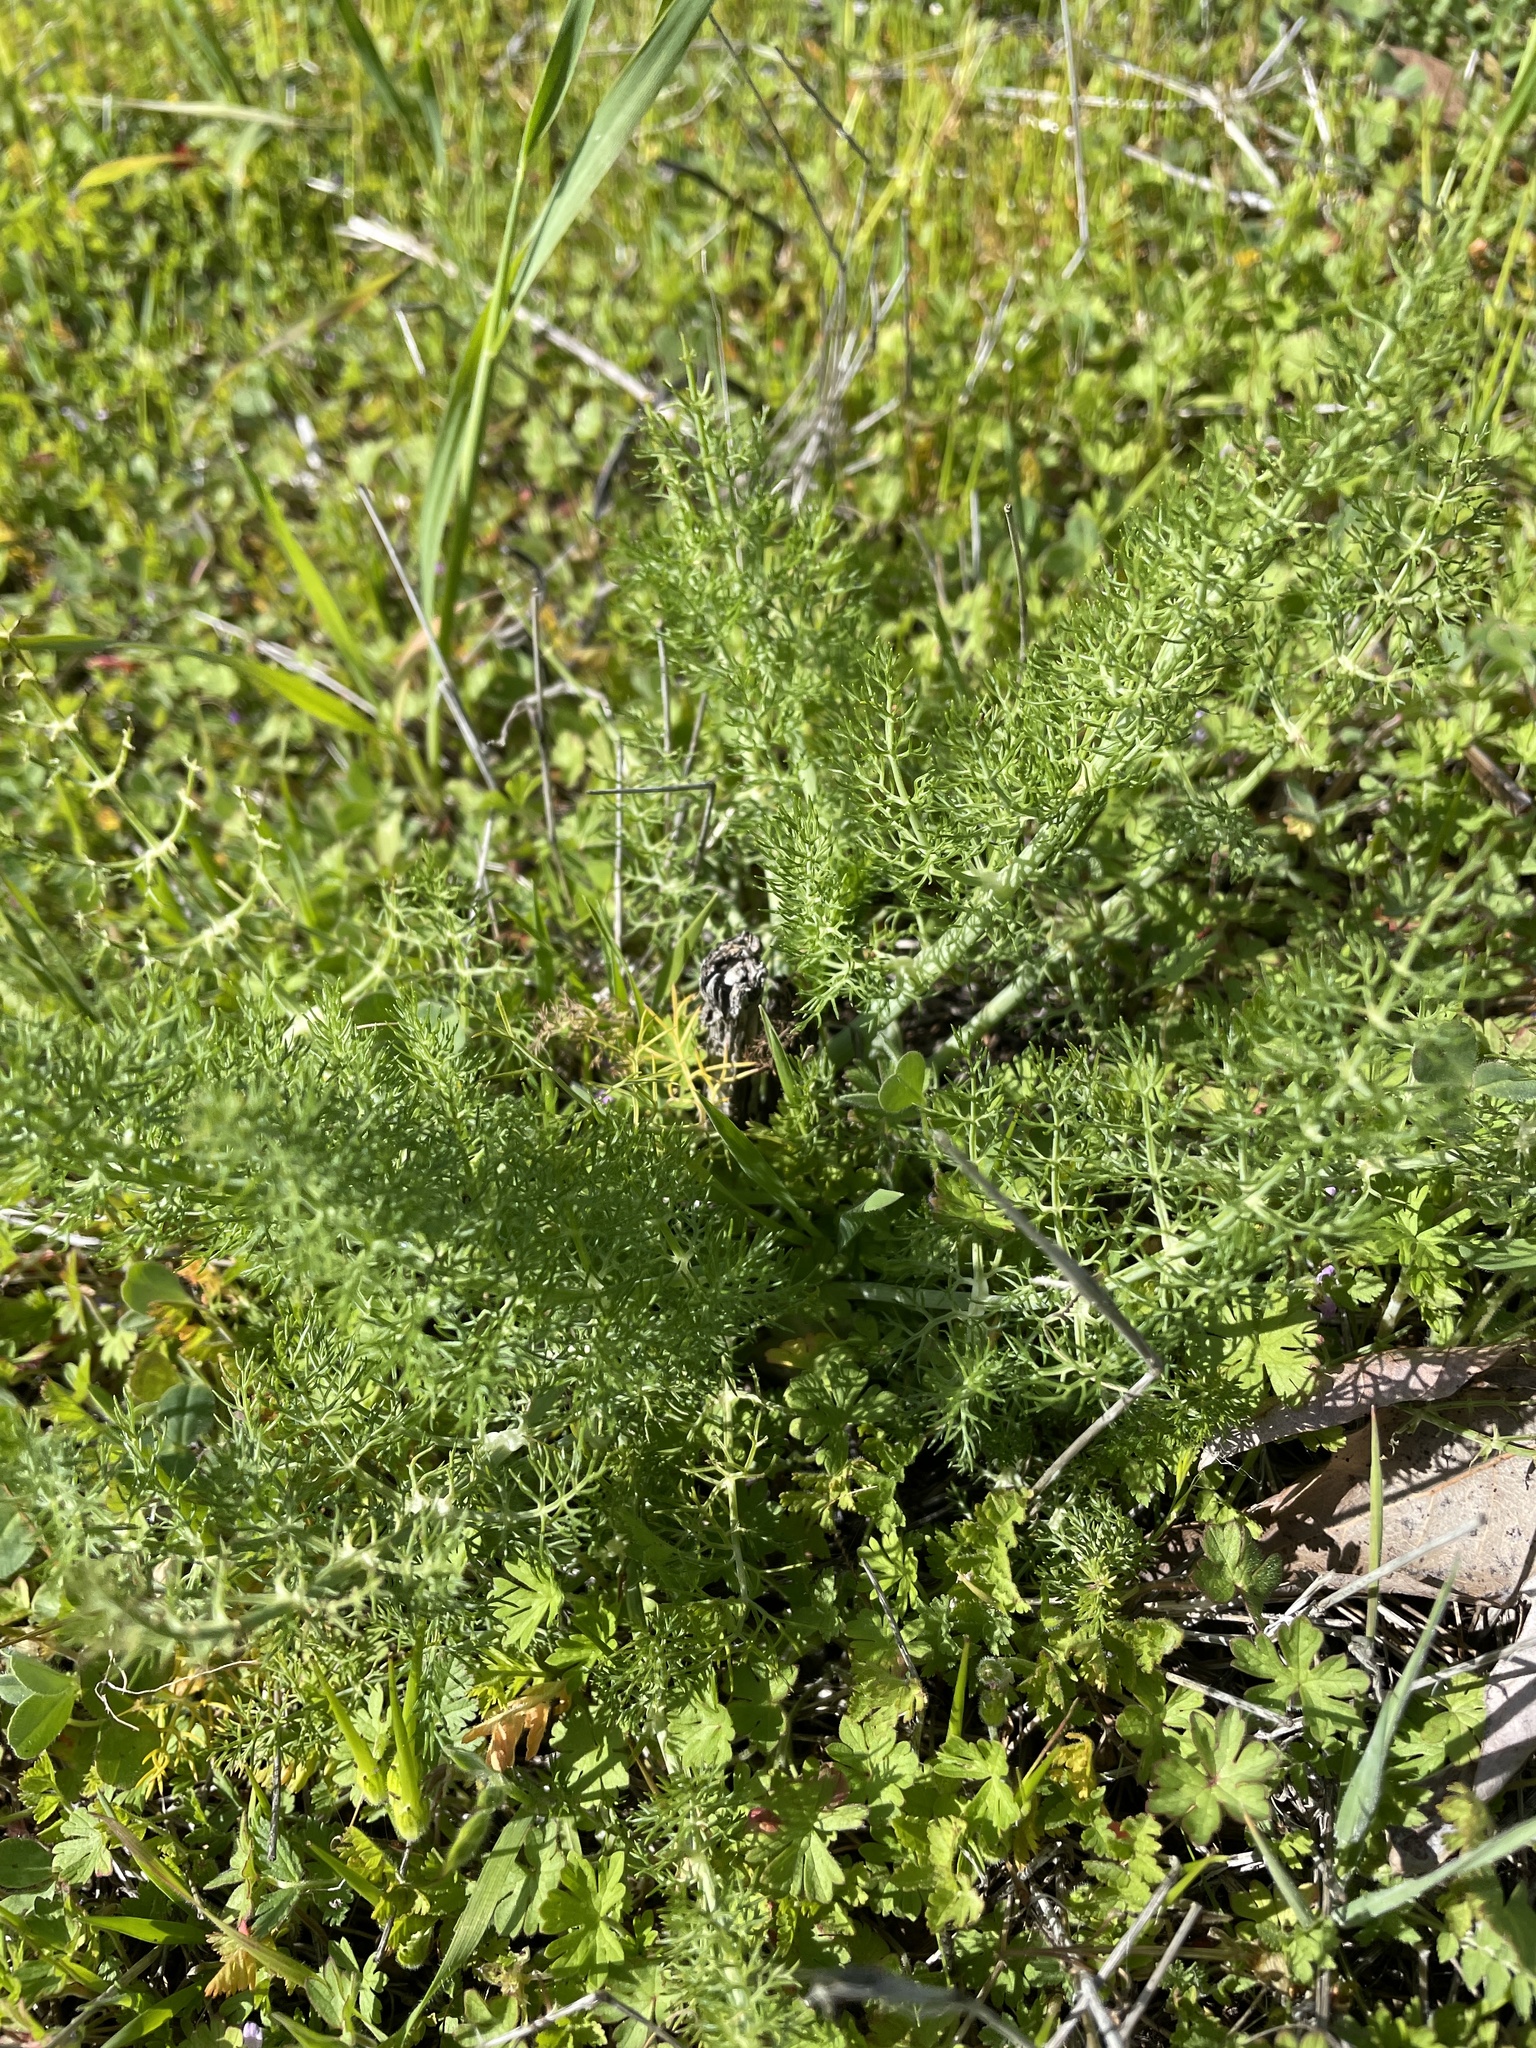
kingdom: Plantae
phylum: Tracheophyta
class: Magnoliopsida
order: Apiales
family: Apiaceae
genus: Foeniculum
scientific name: Foeniculum vulgare
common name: Fennel
